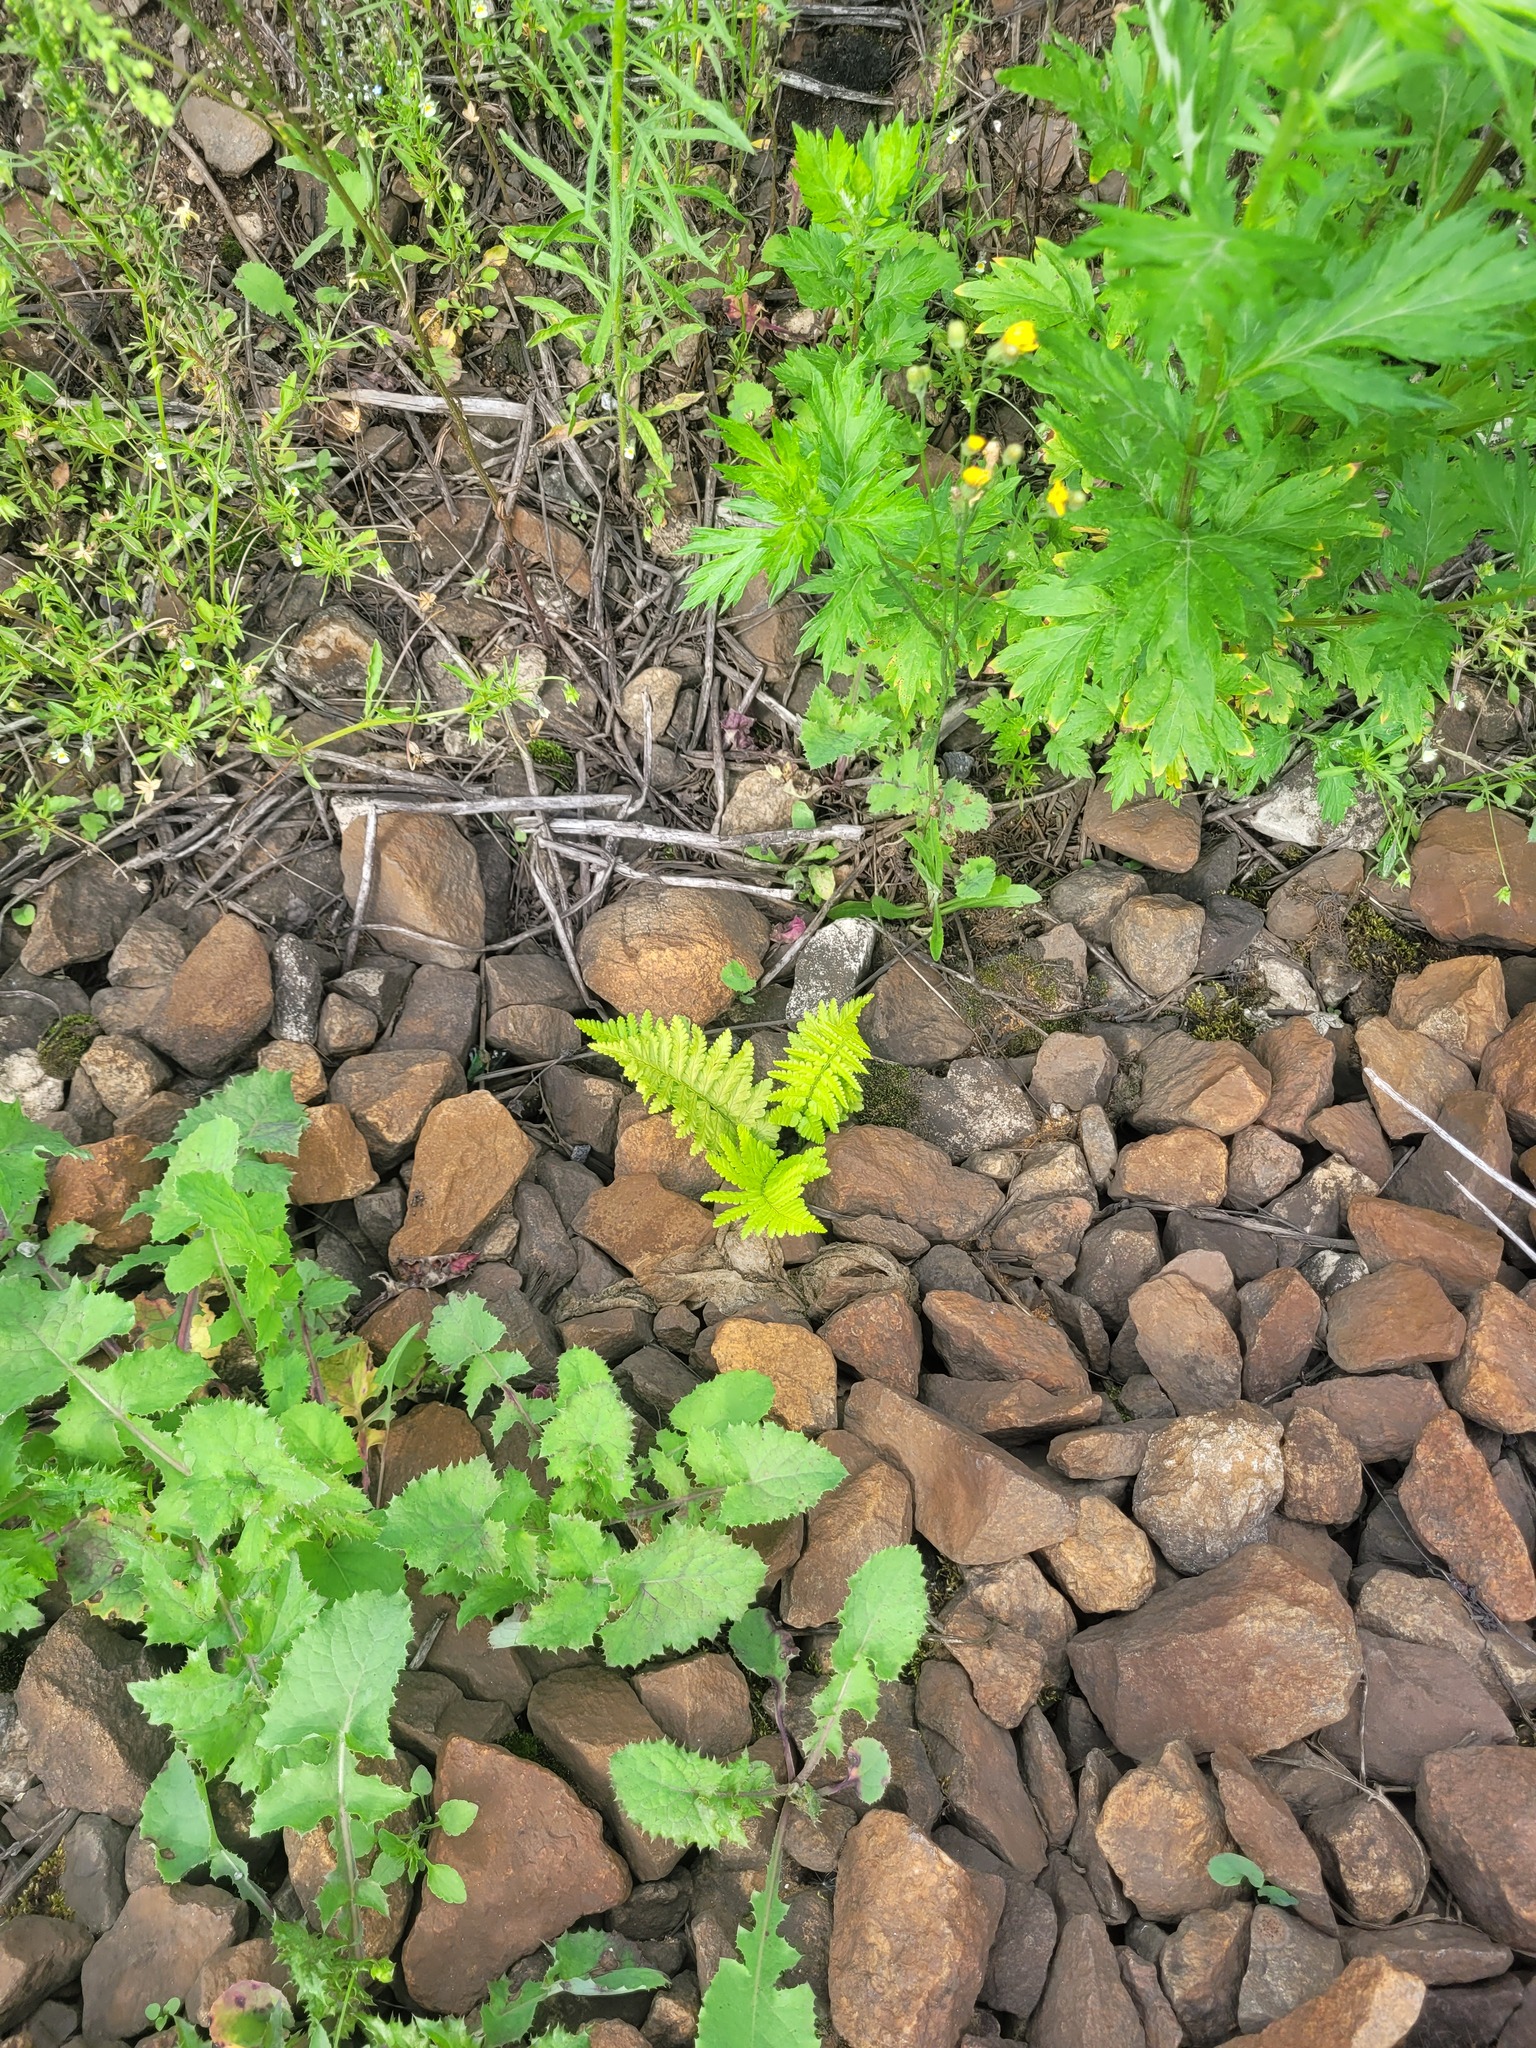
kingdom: Plantae
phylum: Tracheophyta
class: Polypodiopsida
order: Polypodiales
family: Dryopteridaceae
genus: Dryopteris
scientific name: Dryopteris filix-mas
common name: Male fern
